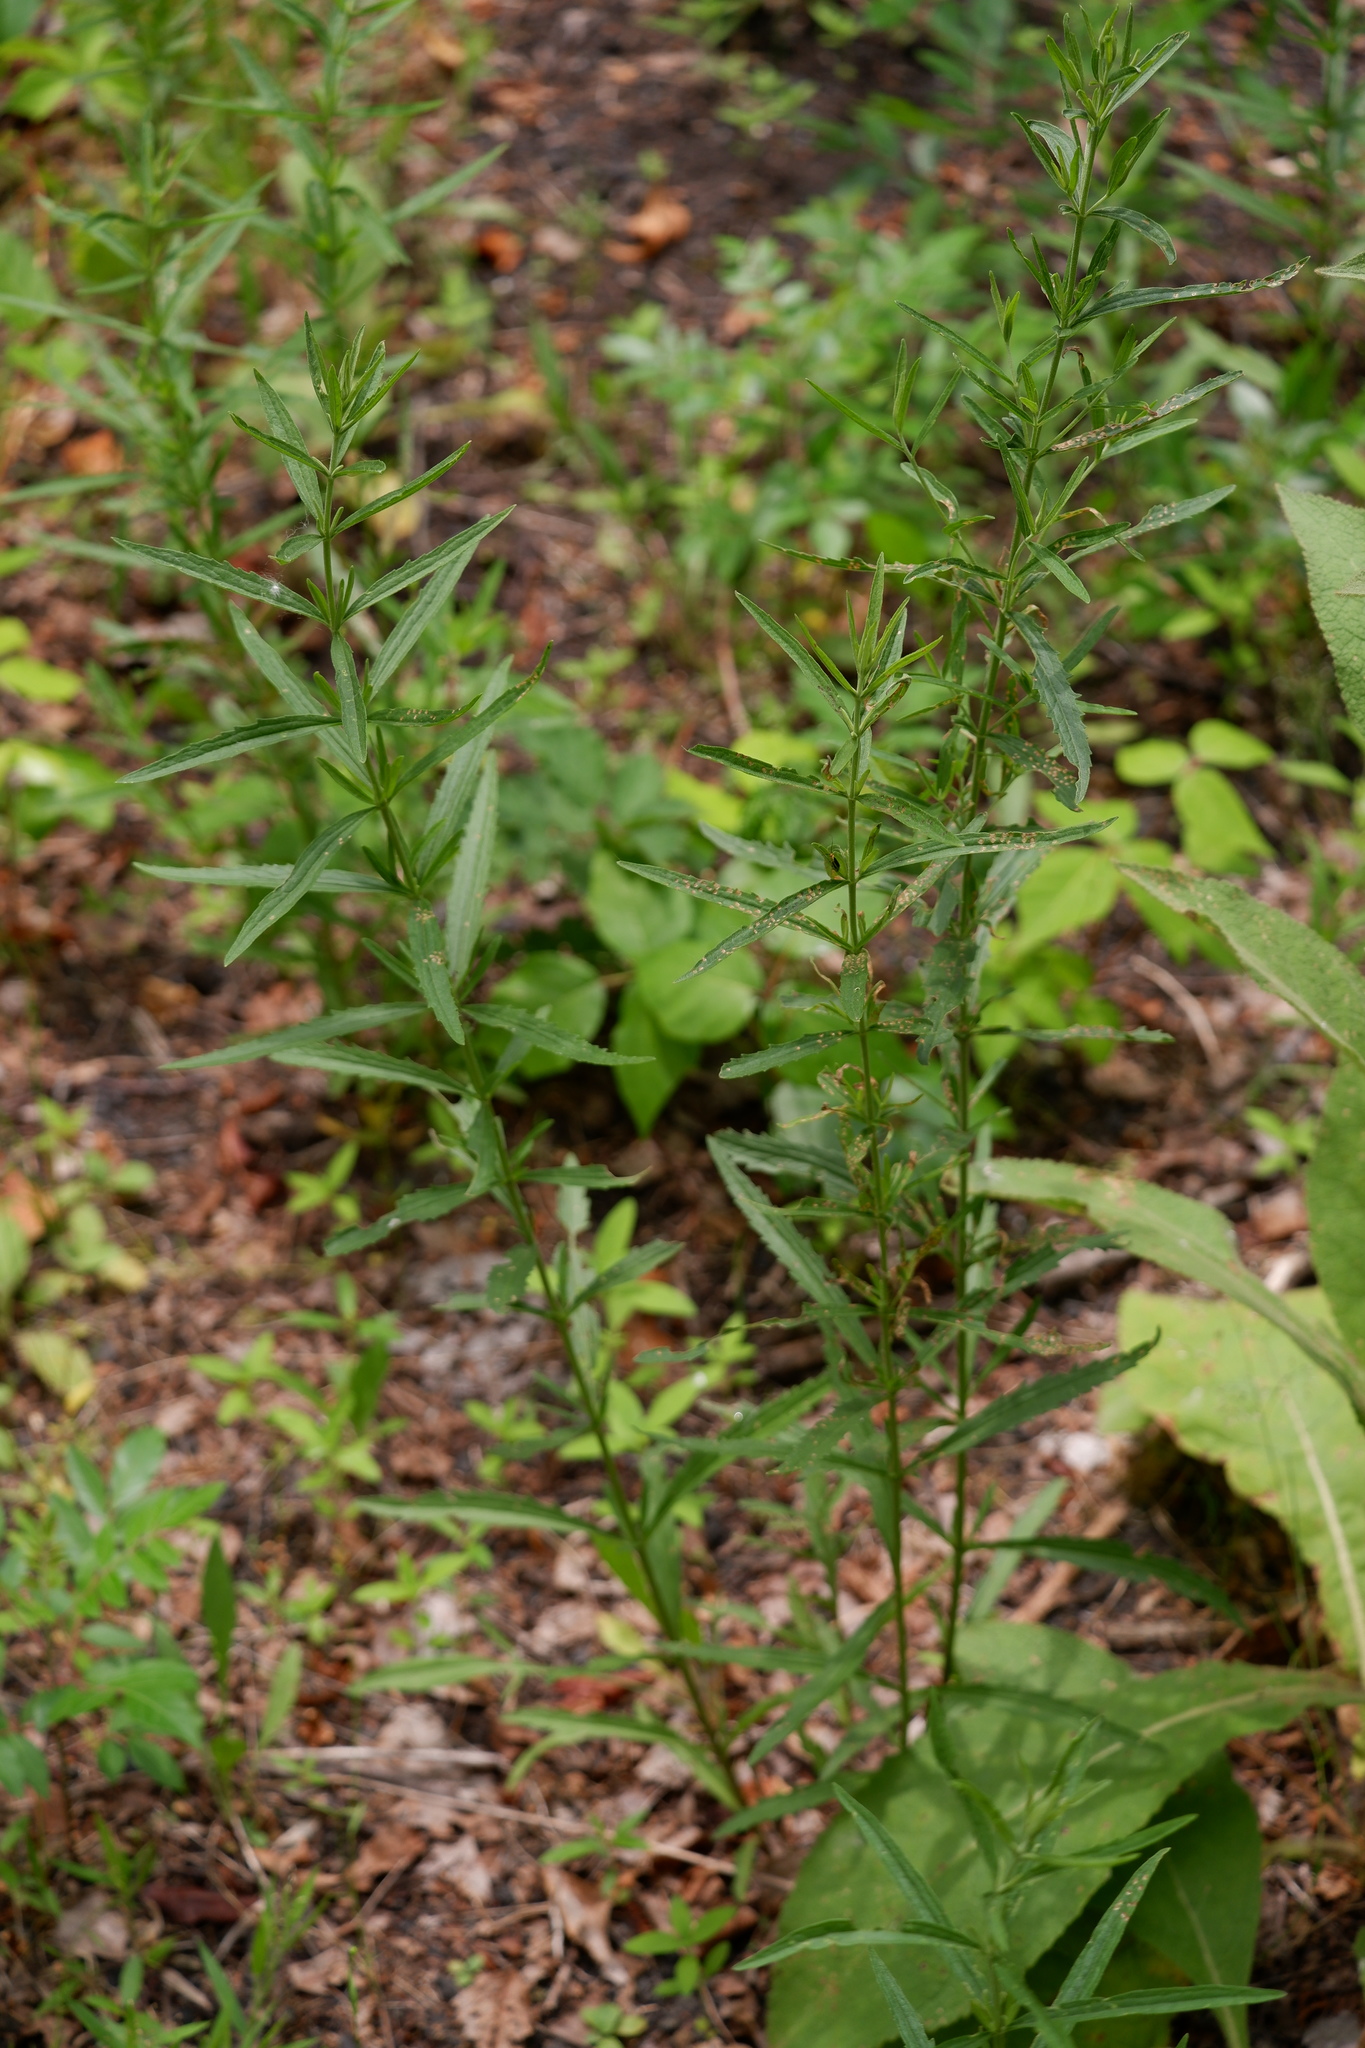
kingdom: Plantae
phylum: Tracheophyta
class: Magnoliopsida
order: Asterales
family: Asteraceae
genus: Eupatorium
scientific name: Eupatorium torreyanum
